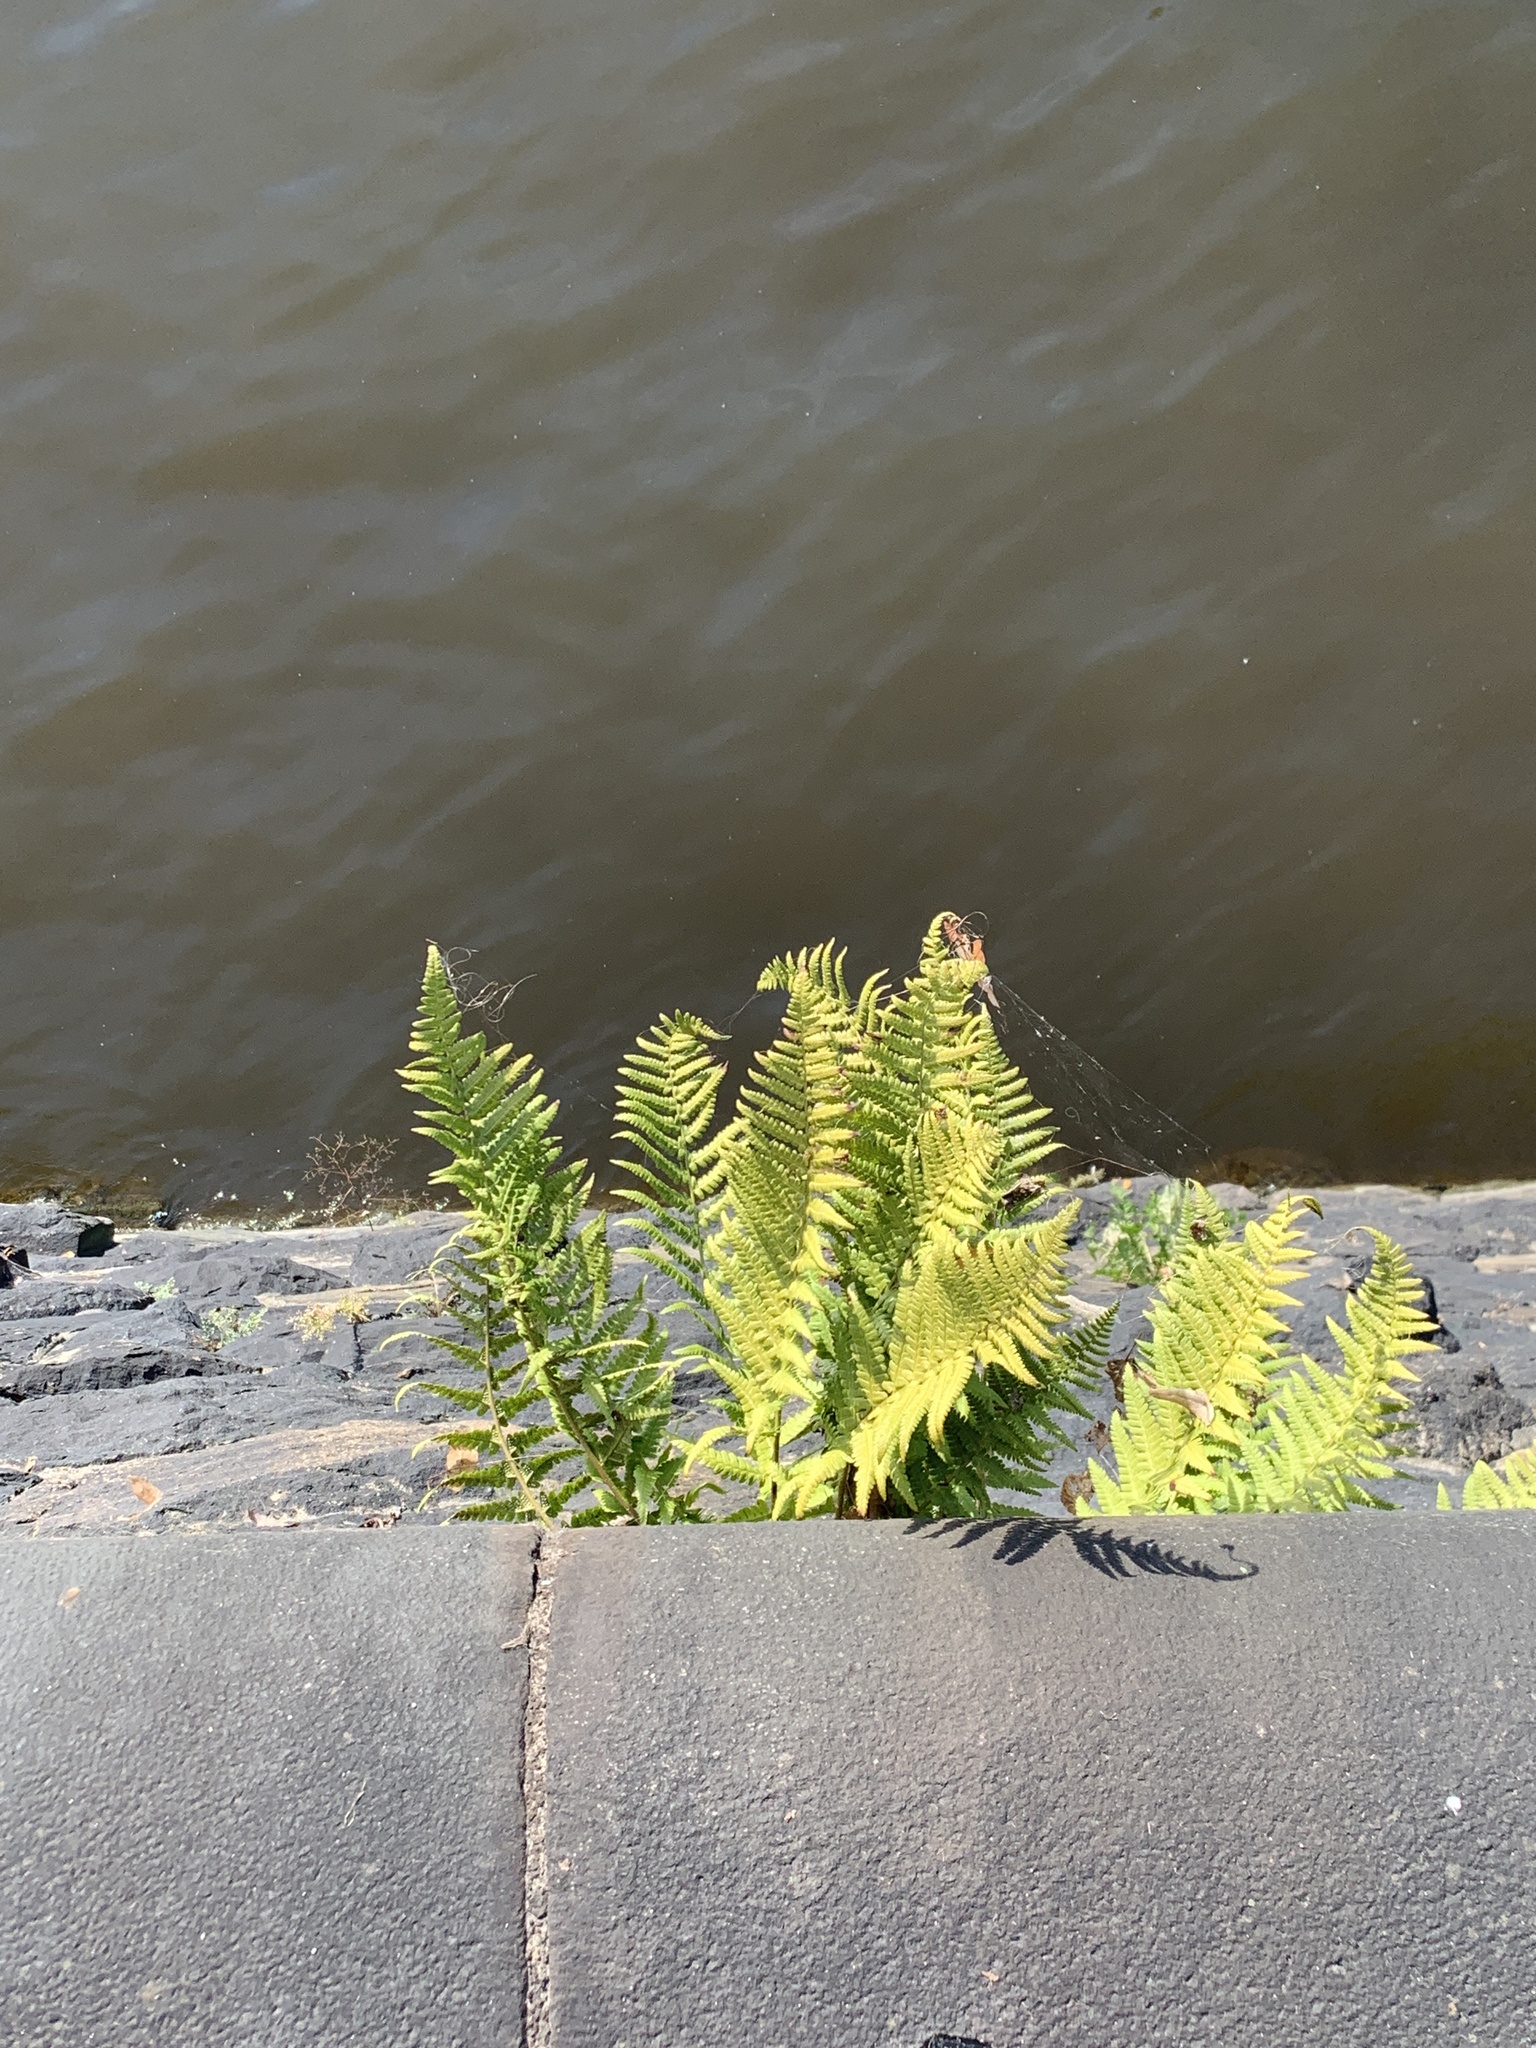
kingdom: Plantae
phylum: Tracheophyta
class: Polypodiopsida
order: Polypodiales
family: Dryopteridaceae
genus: Dryopteris
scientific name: Dryopteris filix-mas
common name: Male fern
